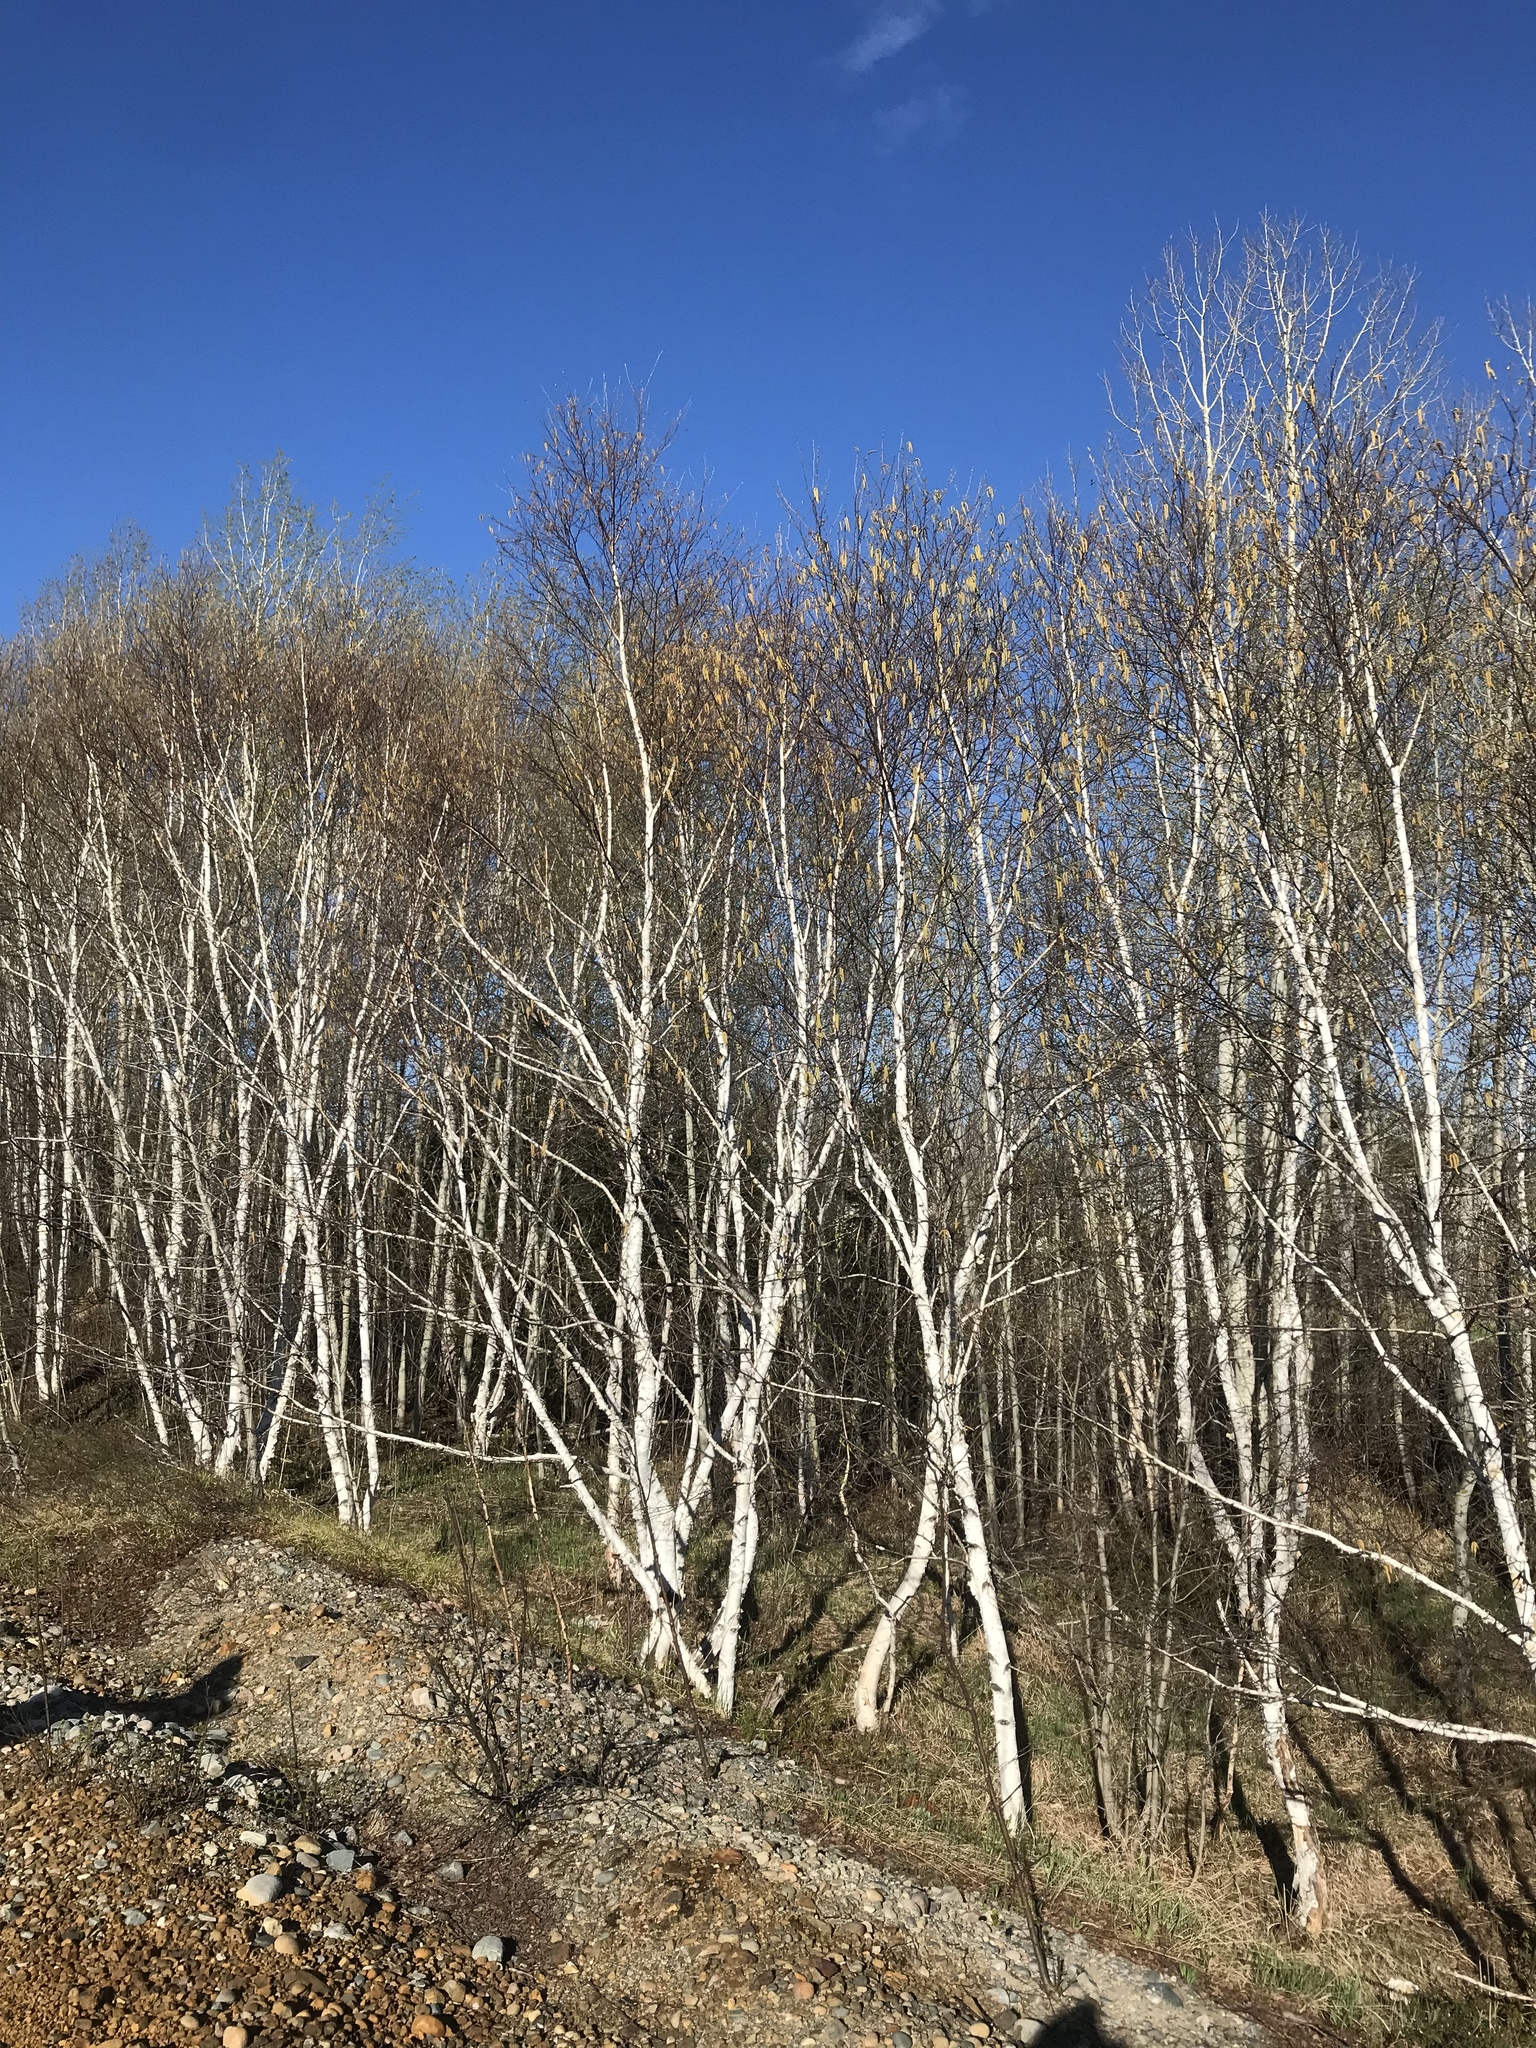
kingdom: Plantae
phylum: Tracheophyta
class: Magnoliopsida
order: Fagales
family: Betulaceae
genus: Betula
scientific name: Betula papyrifera
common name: Paper birch
